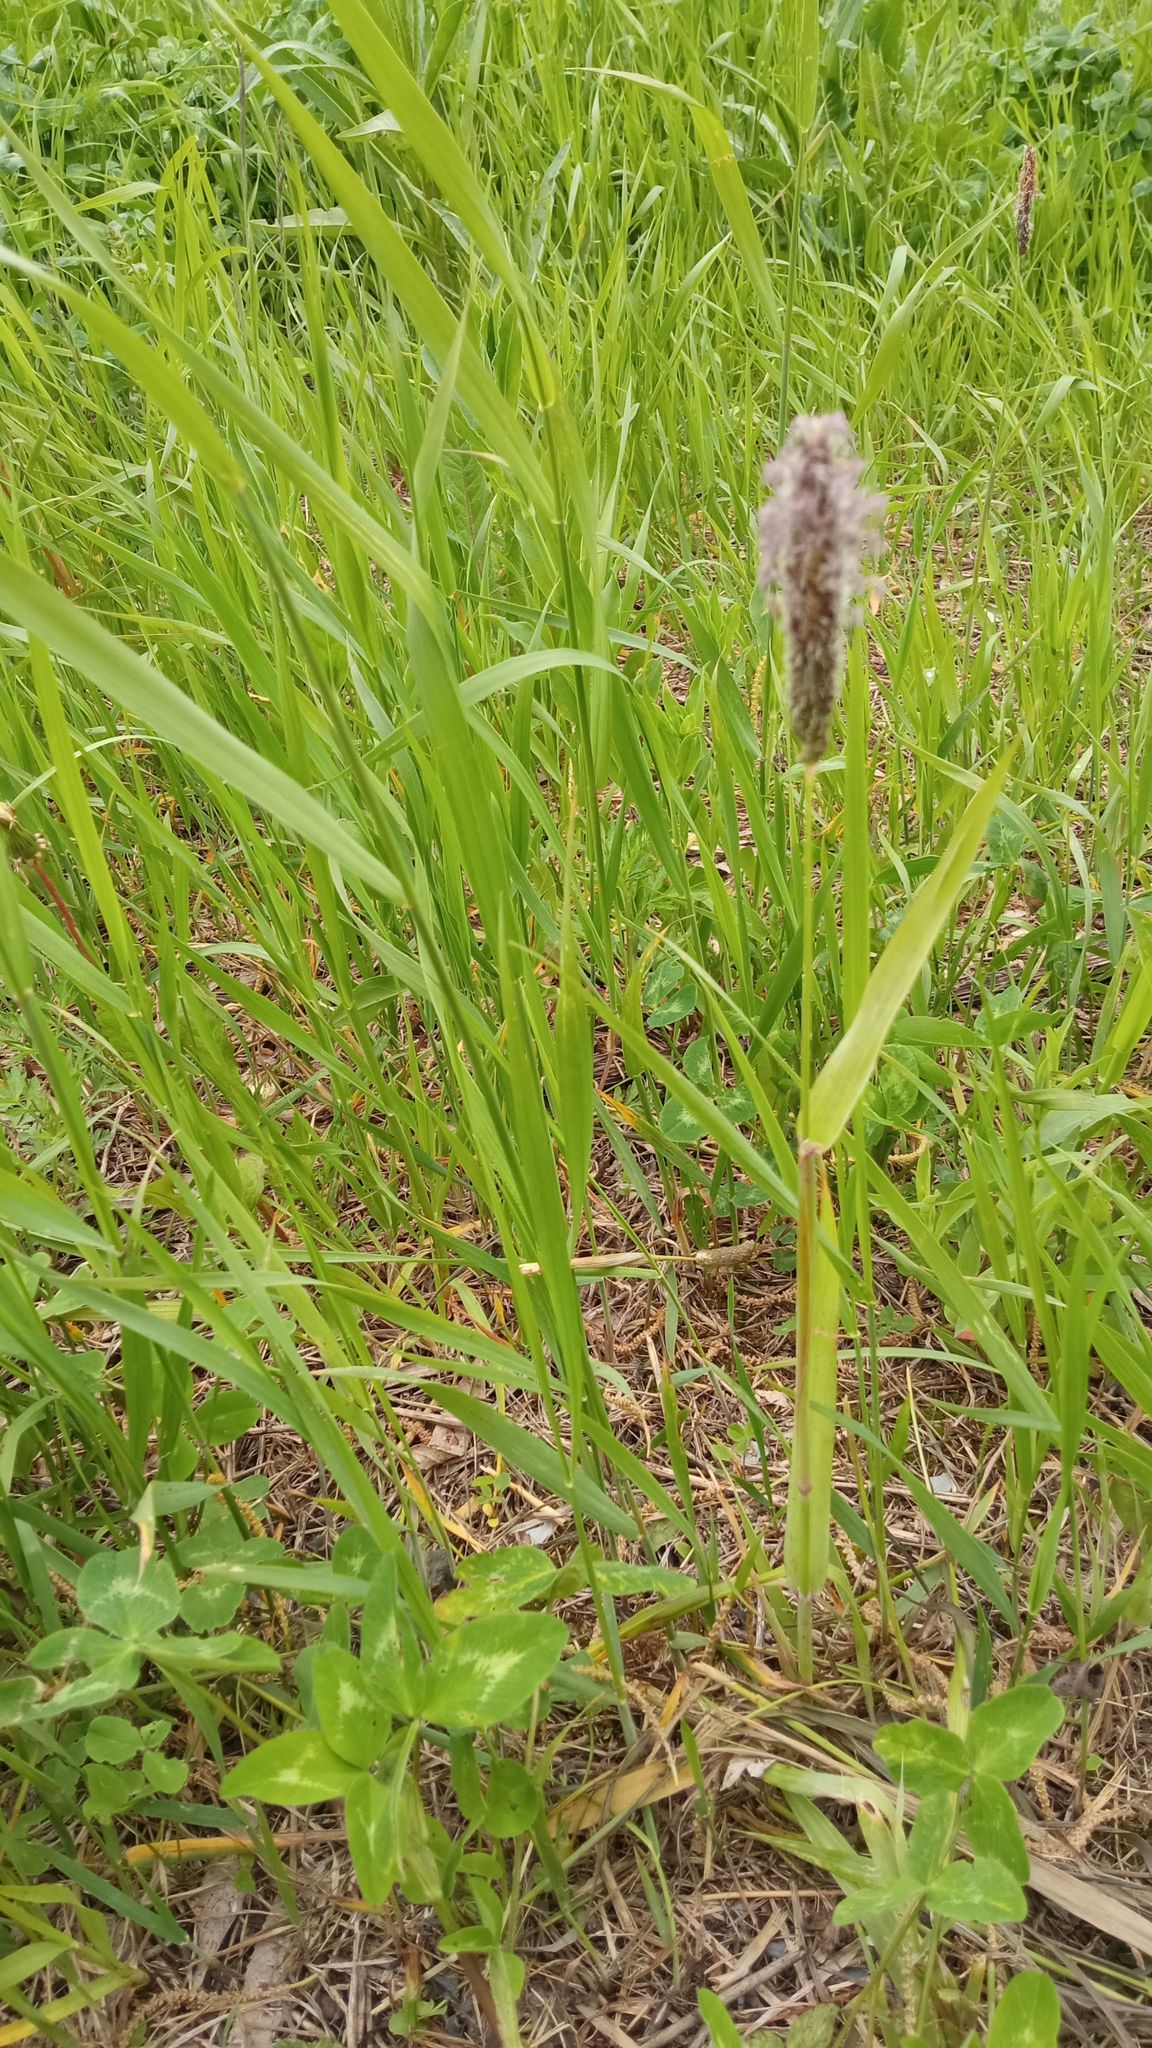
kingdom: Plantae
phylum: Tracheophyta
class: Liliopsida
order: Poales
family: Poaceae
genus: Alopecurus
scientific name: Alopecurus pratensis
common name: Meadow foxtail
